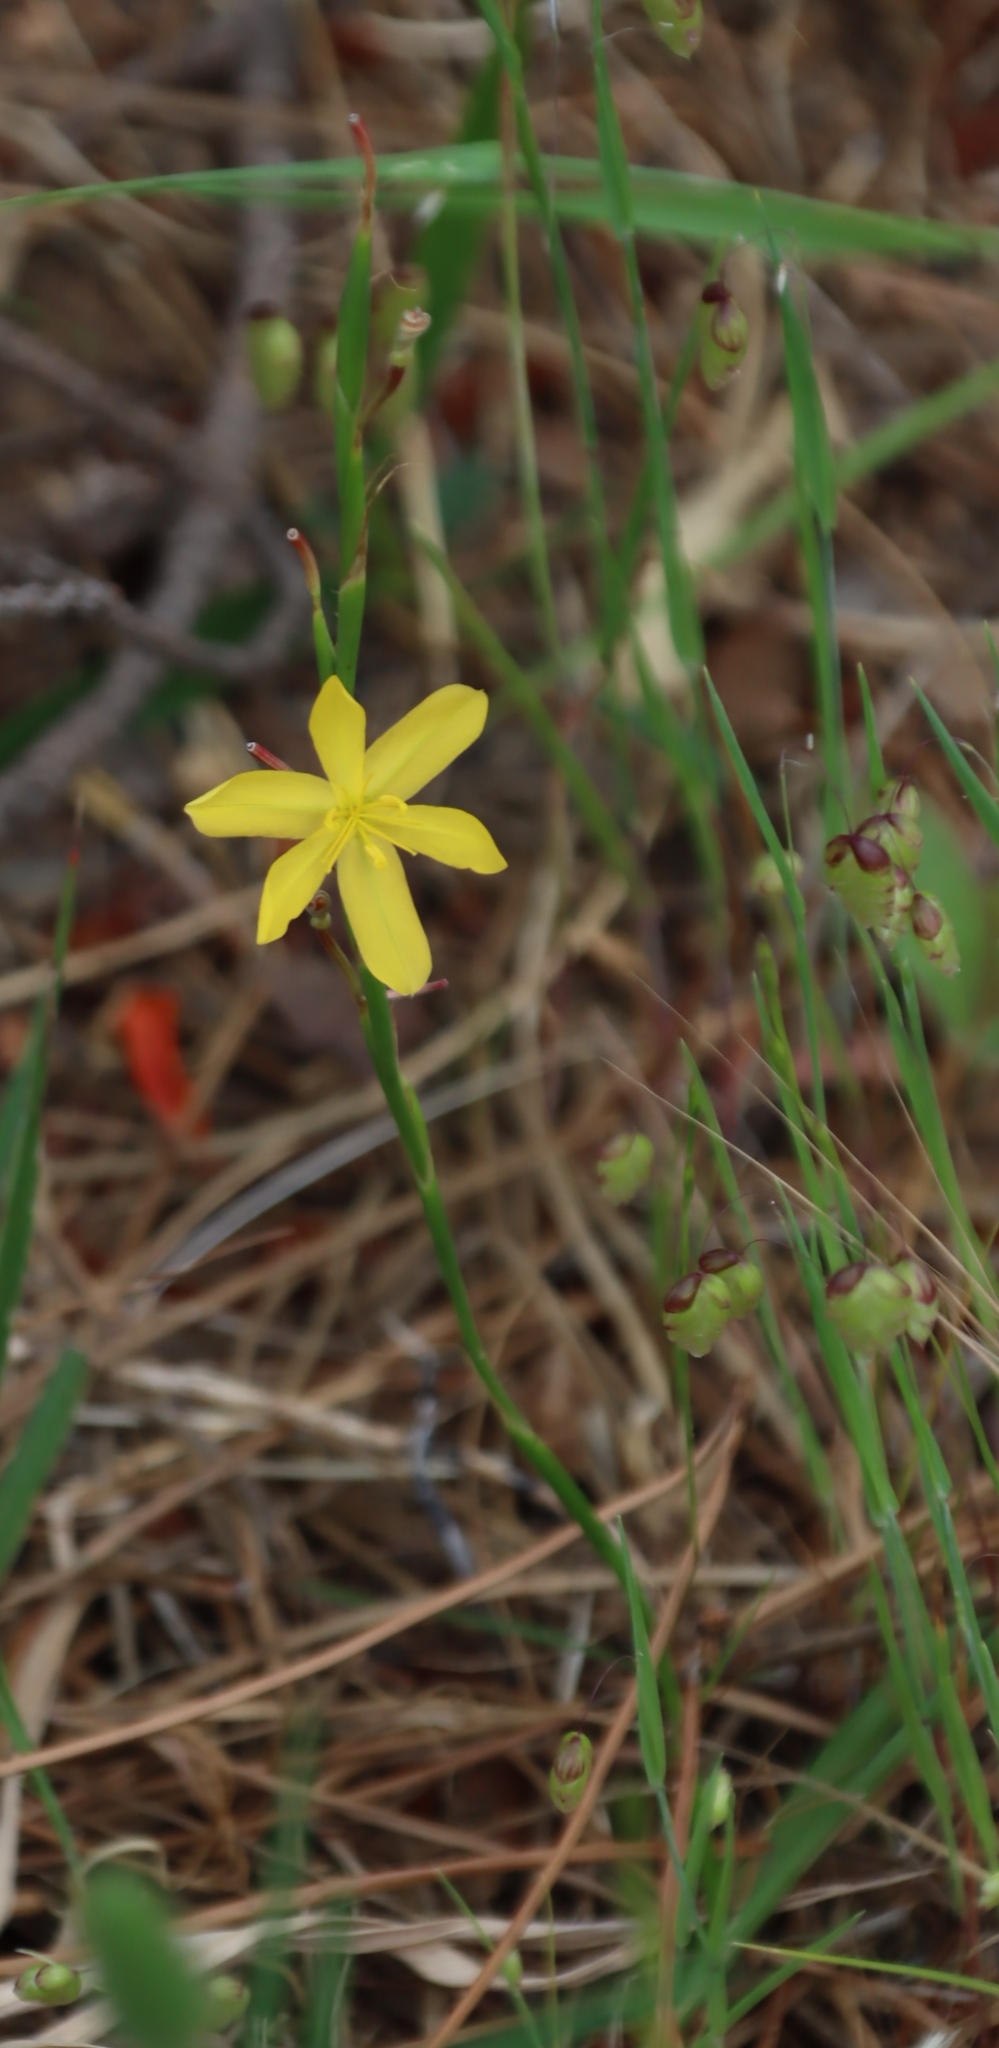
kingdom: Plantae
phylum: Tracheophyta
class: Liliopsida
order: Asparagales
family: Iridaceae
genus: Moraea
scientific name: Moraea lewisiae
